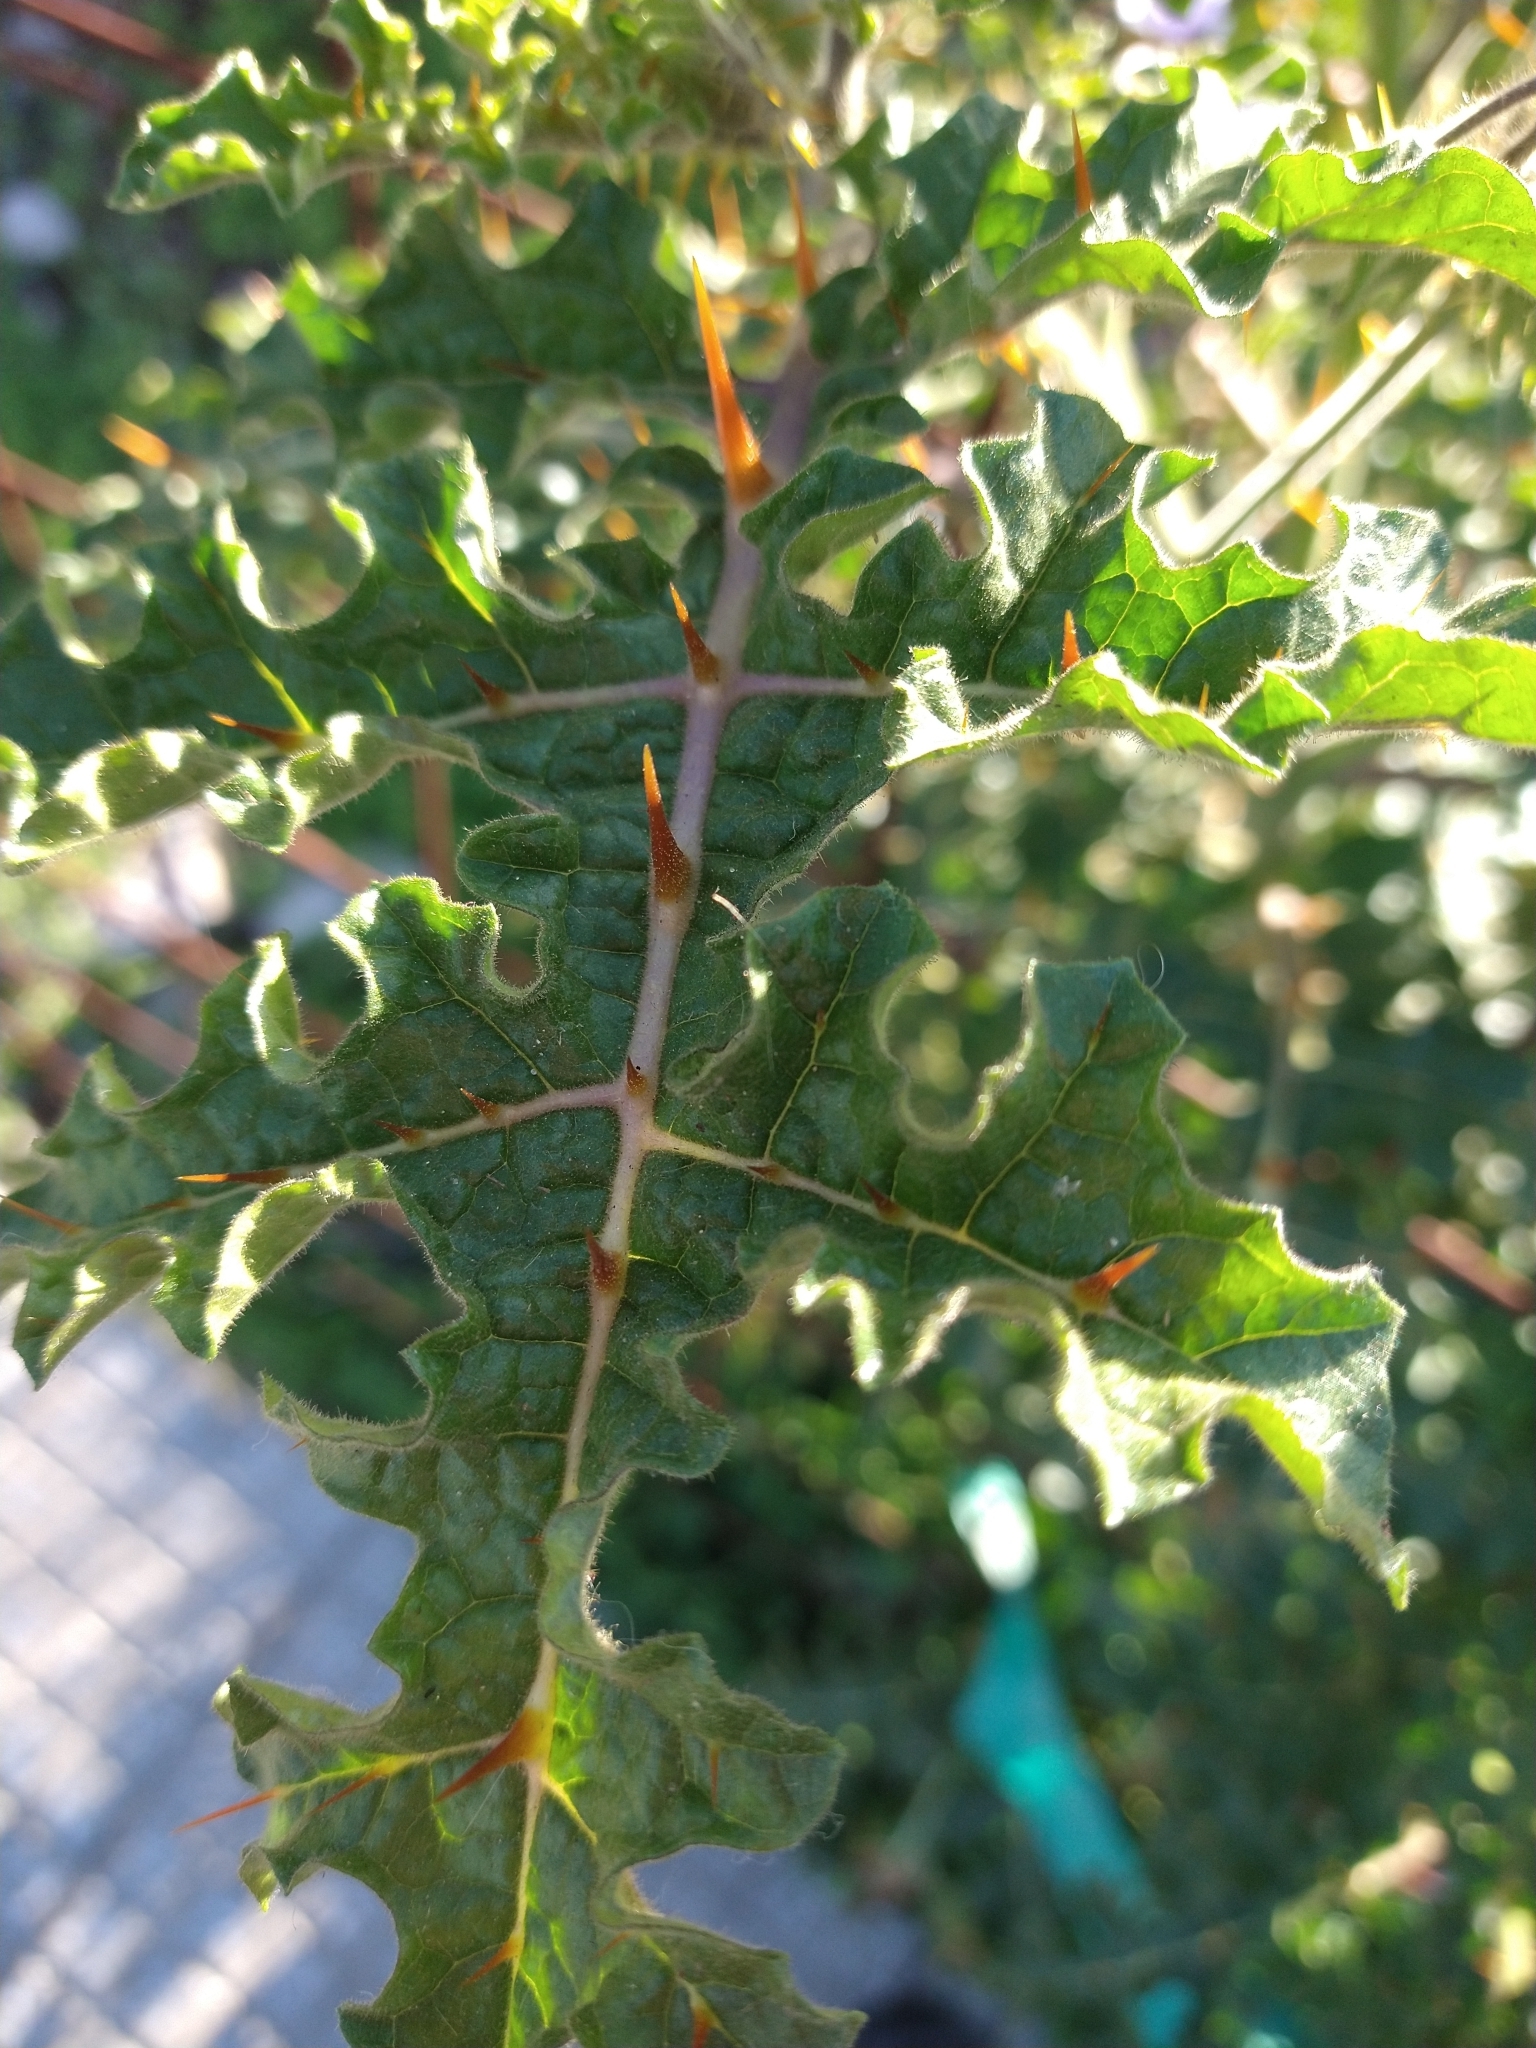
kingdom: Plantae
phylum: Tracheophyta
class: Magnoliopsida
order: Solanales
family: Solanaceae
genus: Solanum
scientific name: Solanum sisymbriifolium
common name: Red buffalo-bur
